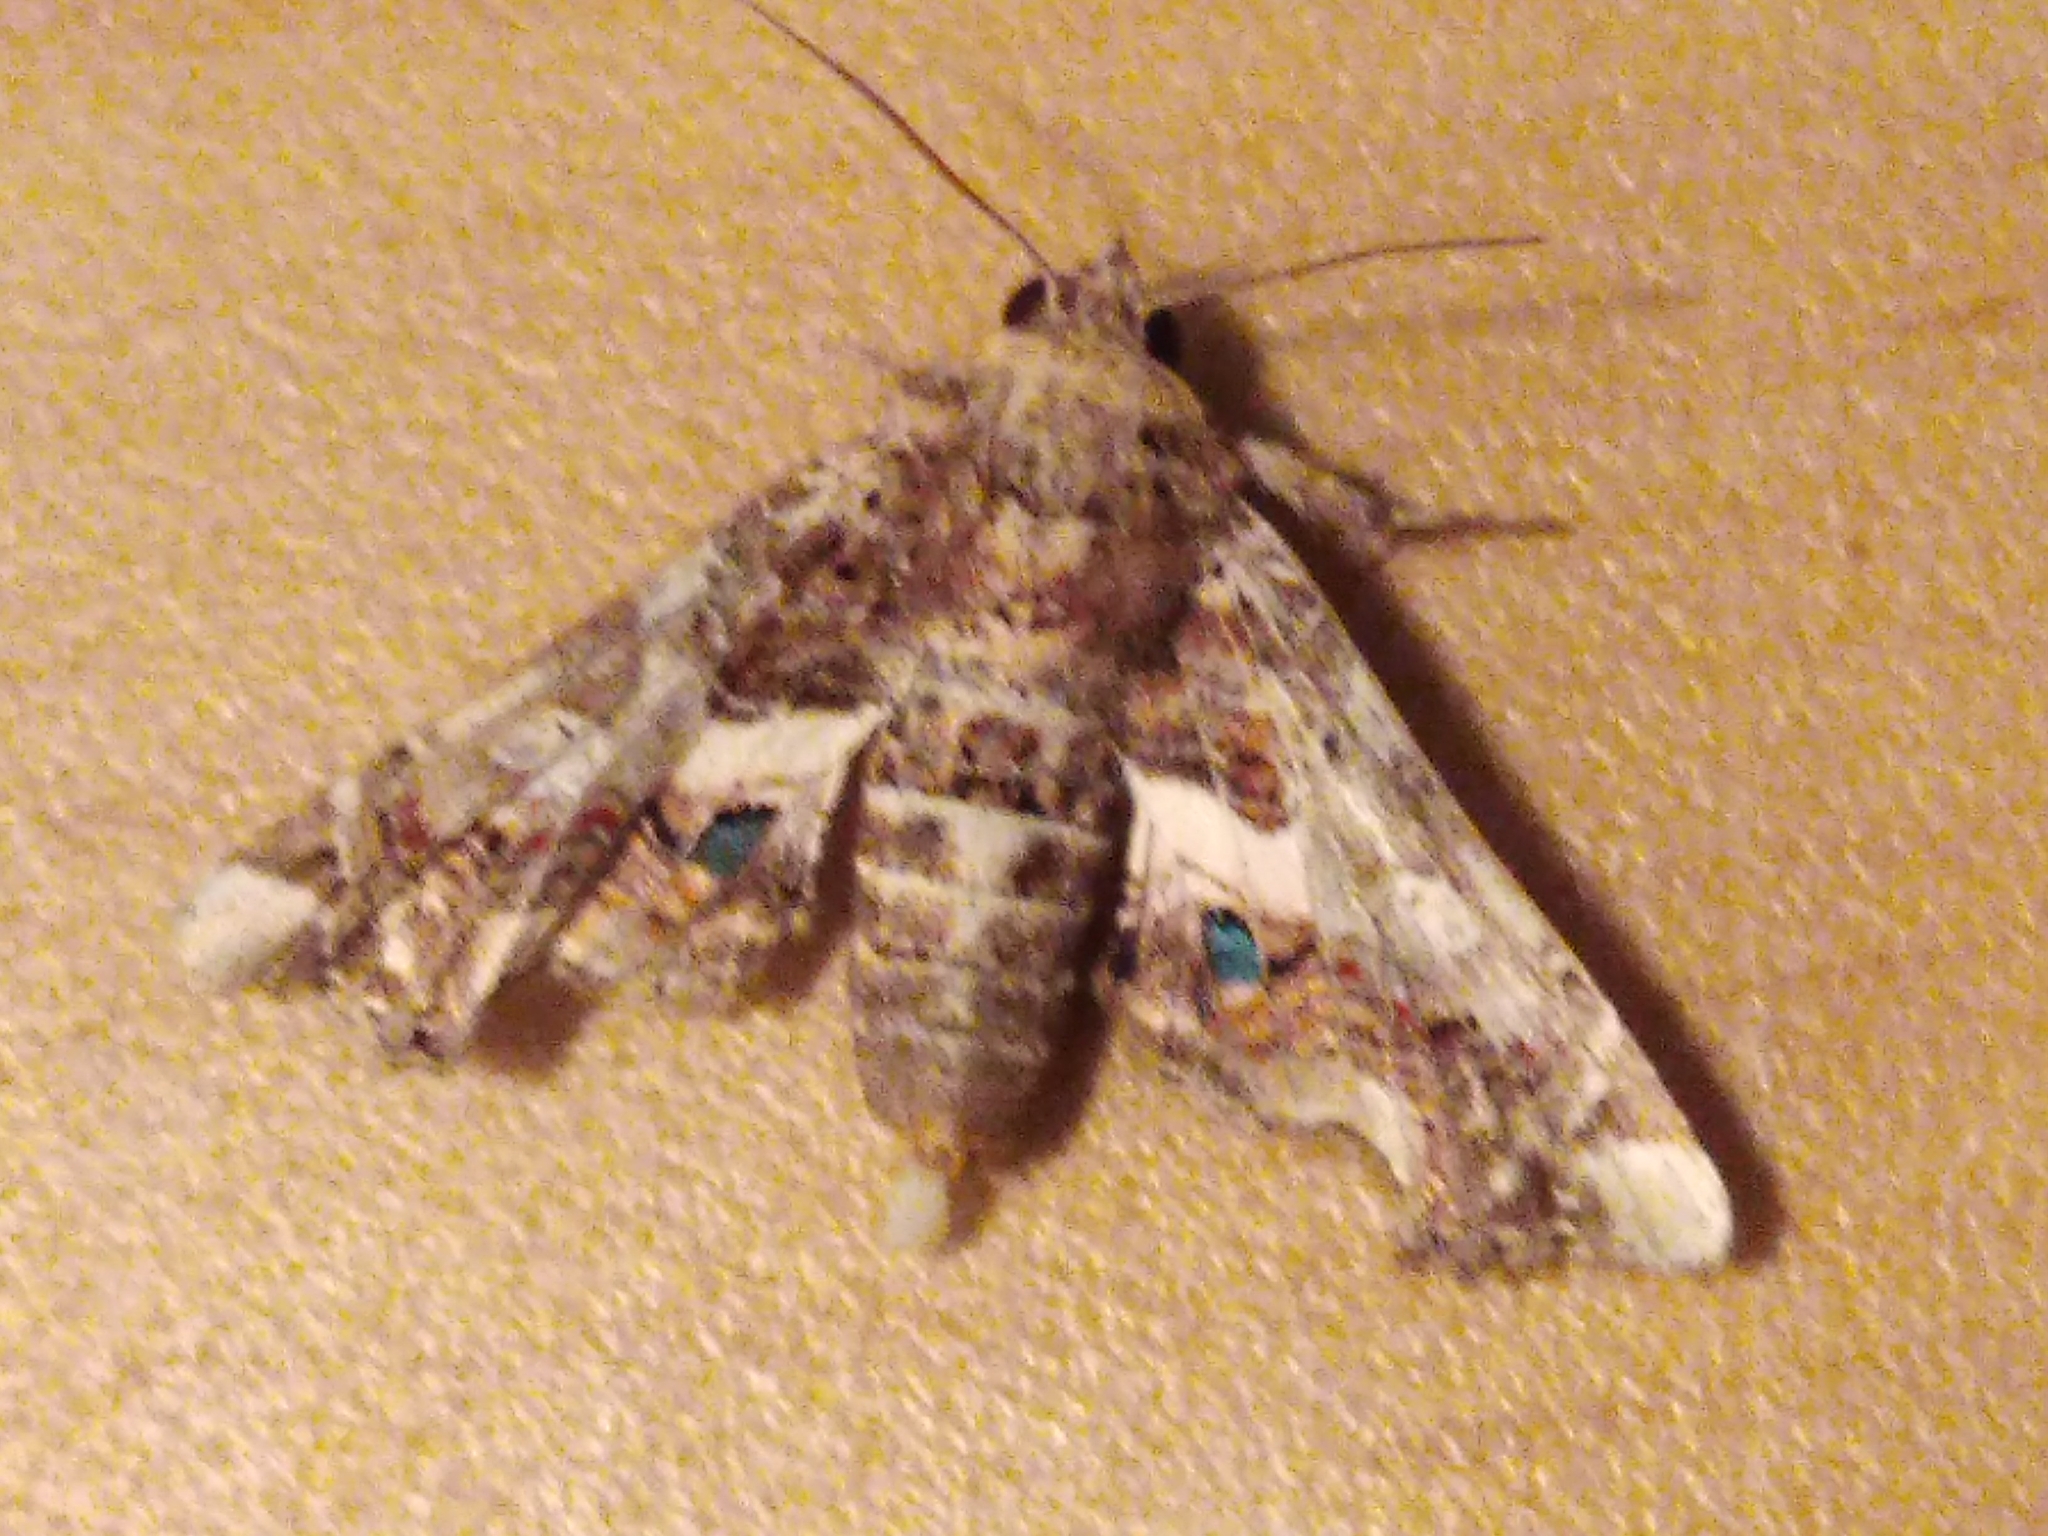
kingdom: Animalia
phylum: Arthropoda
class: Insecta
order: Lepidoptera
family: Euteliidae
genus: Eutelia
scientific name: Eutelia adulatrix
